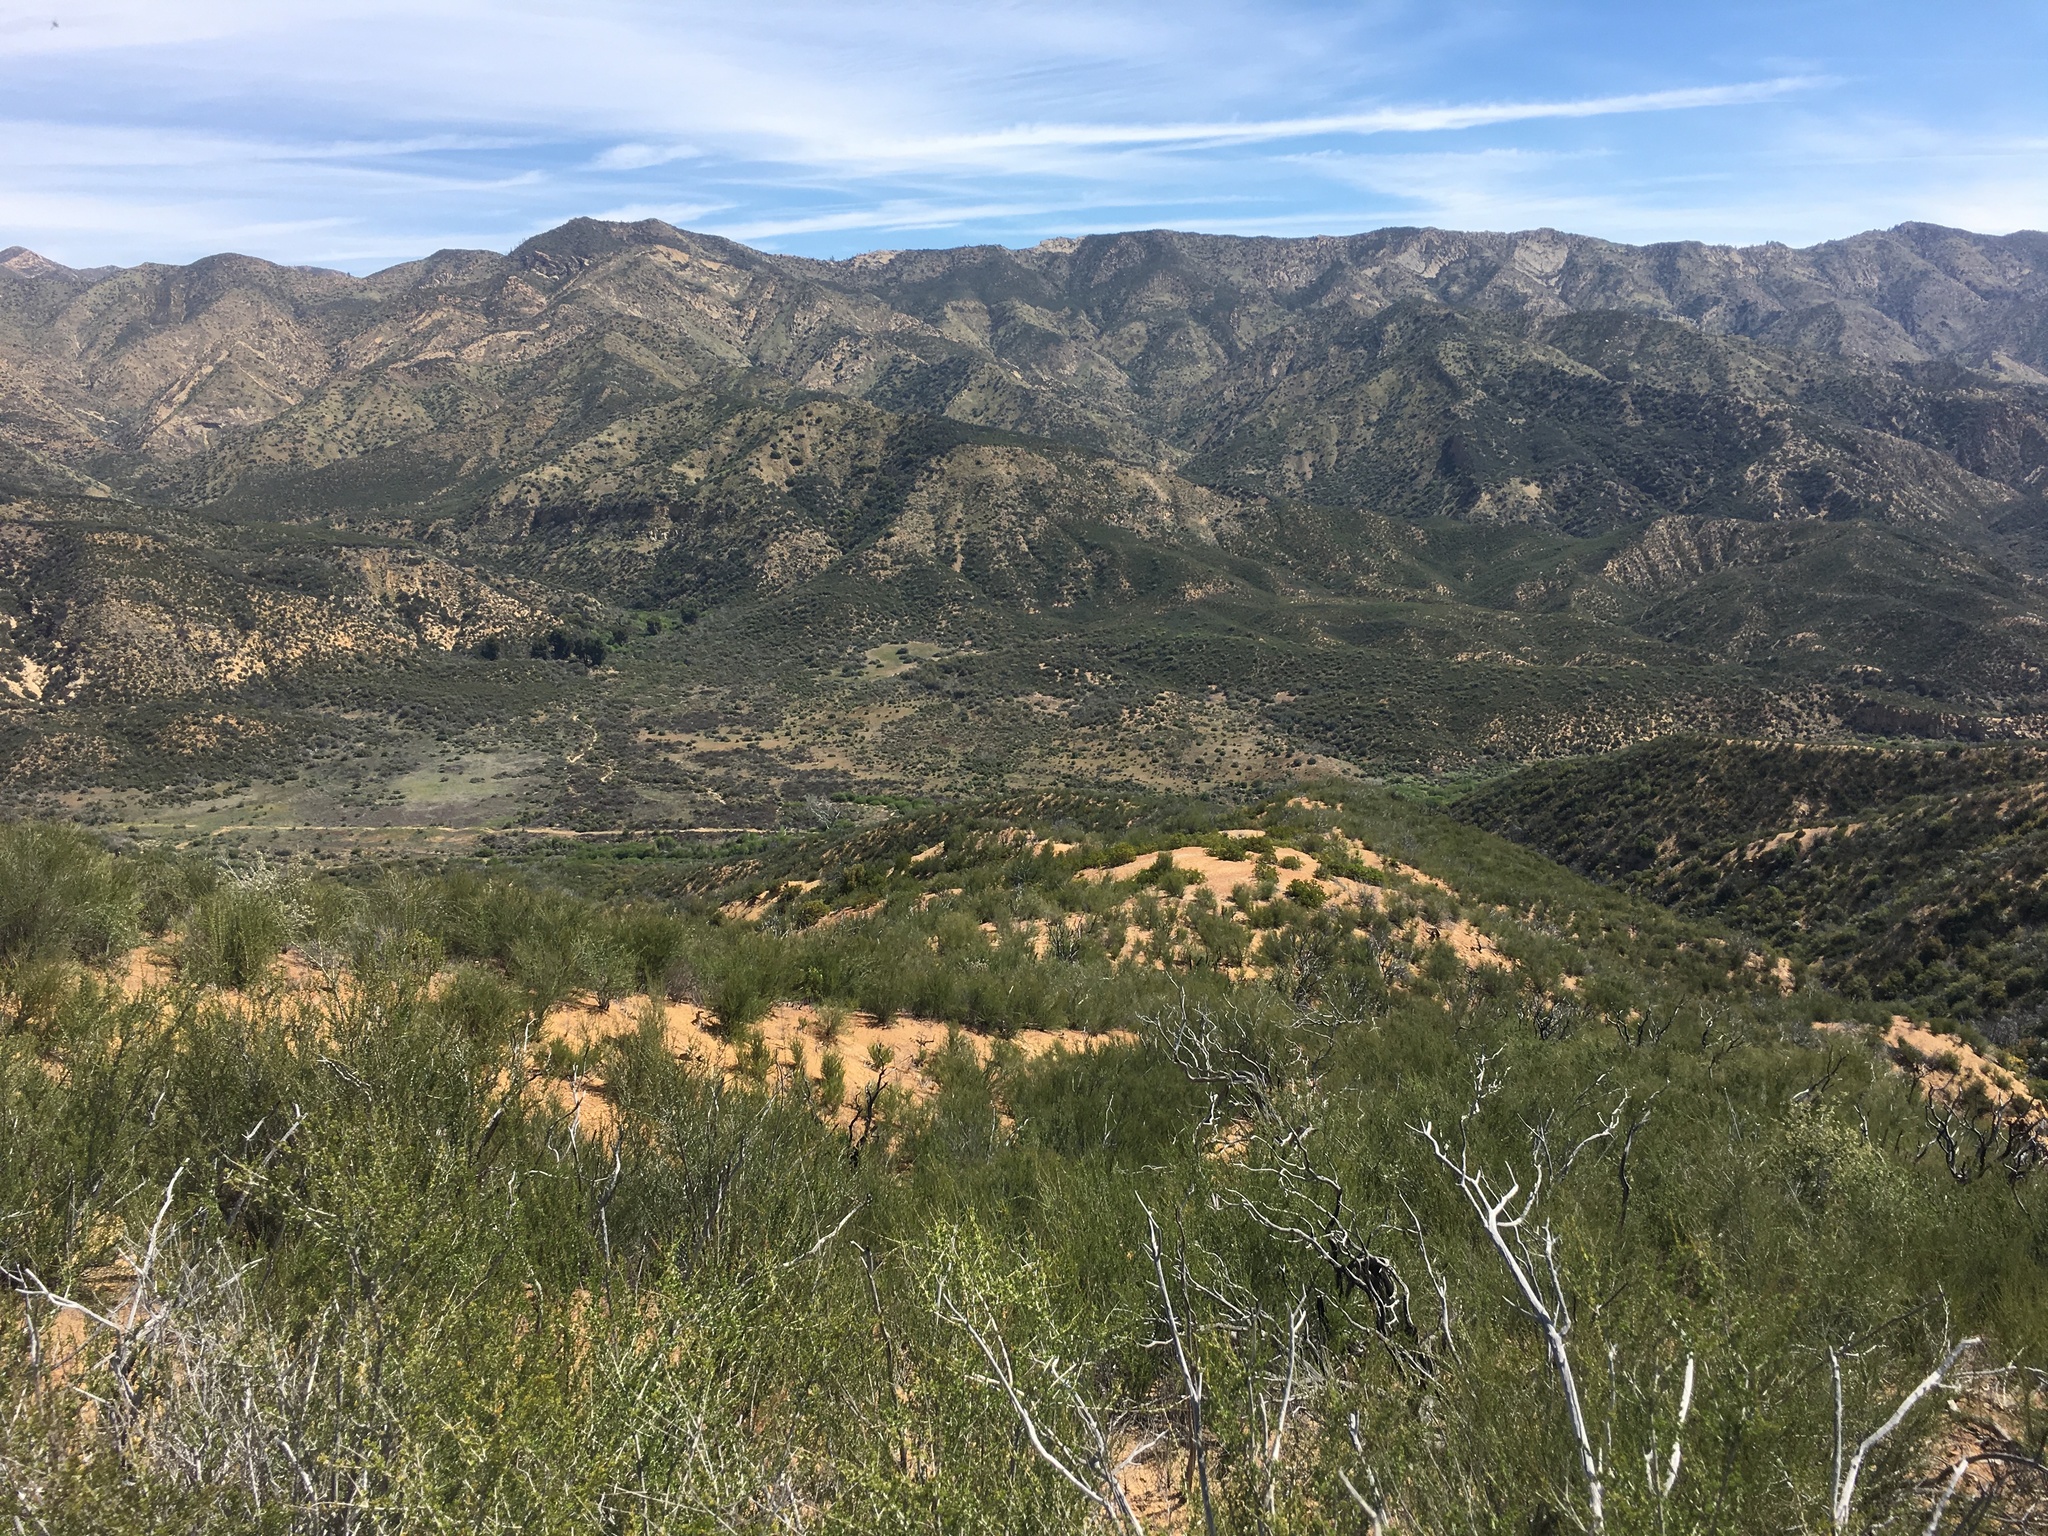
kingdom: Plantae
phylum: Tracheophyta
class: Magnoliopsida
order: Rosales
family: Rosaceae
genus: Adenostoma
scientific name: Adenostoma fasciculatum
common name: Chamise
